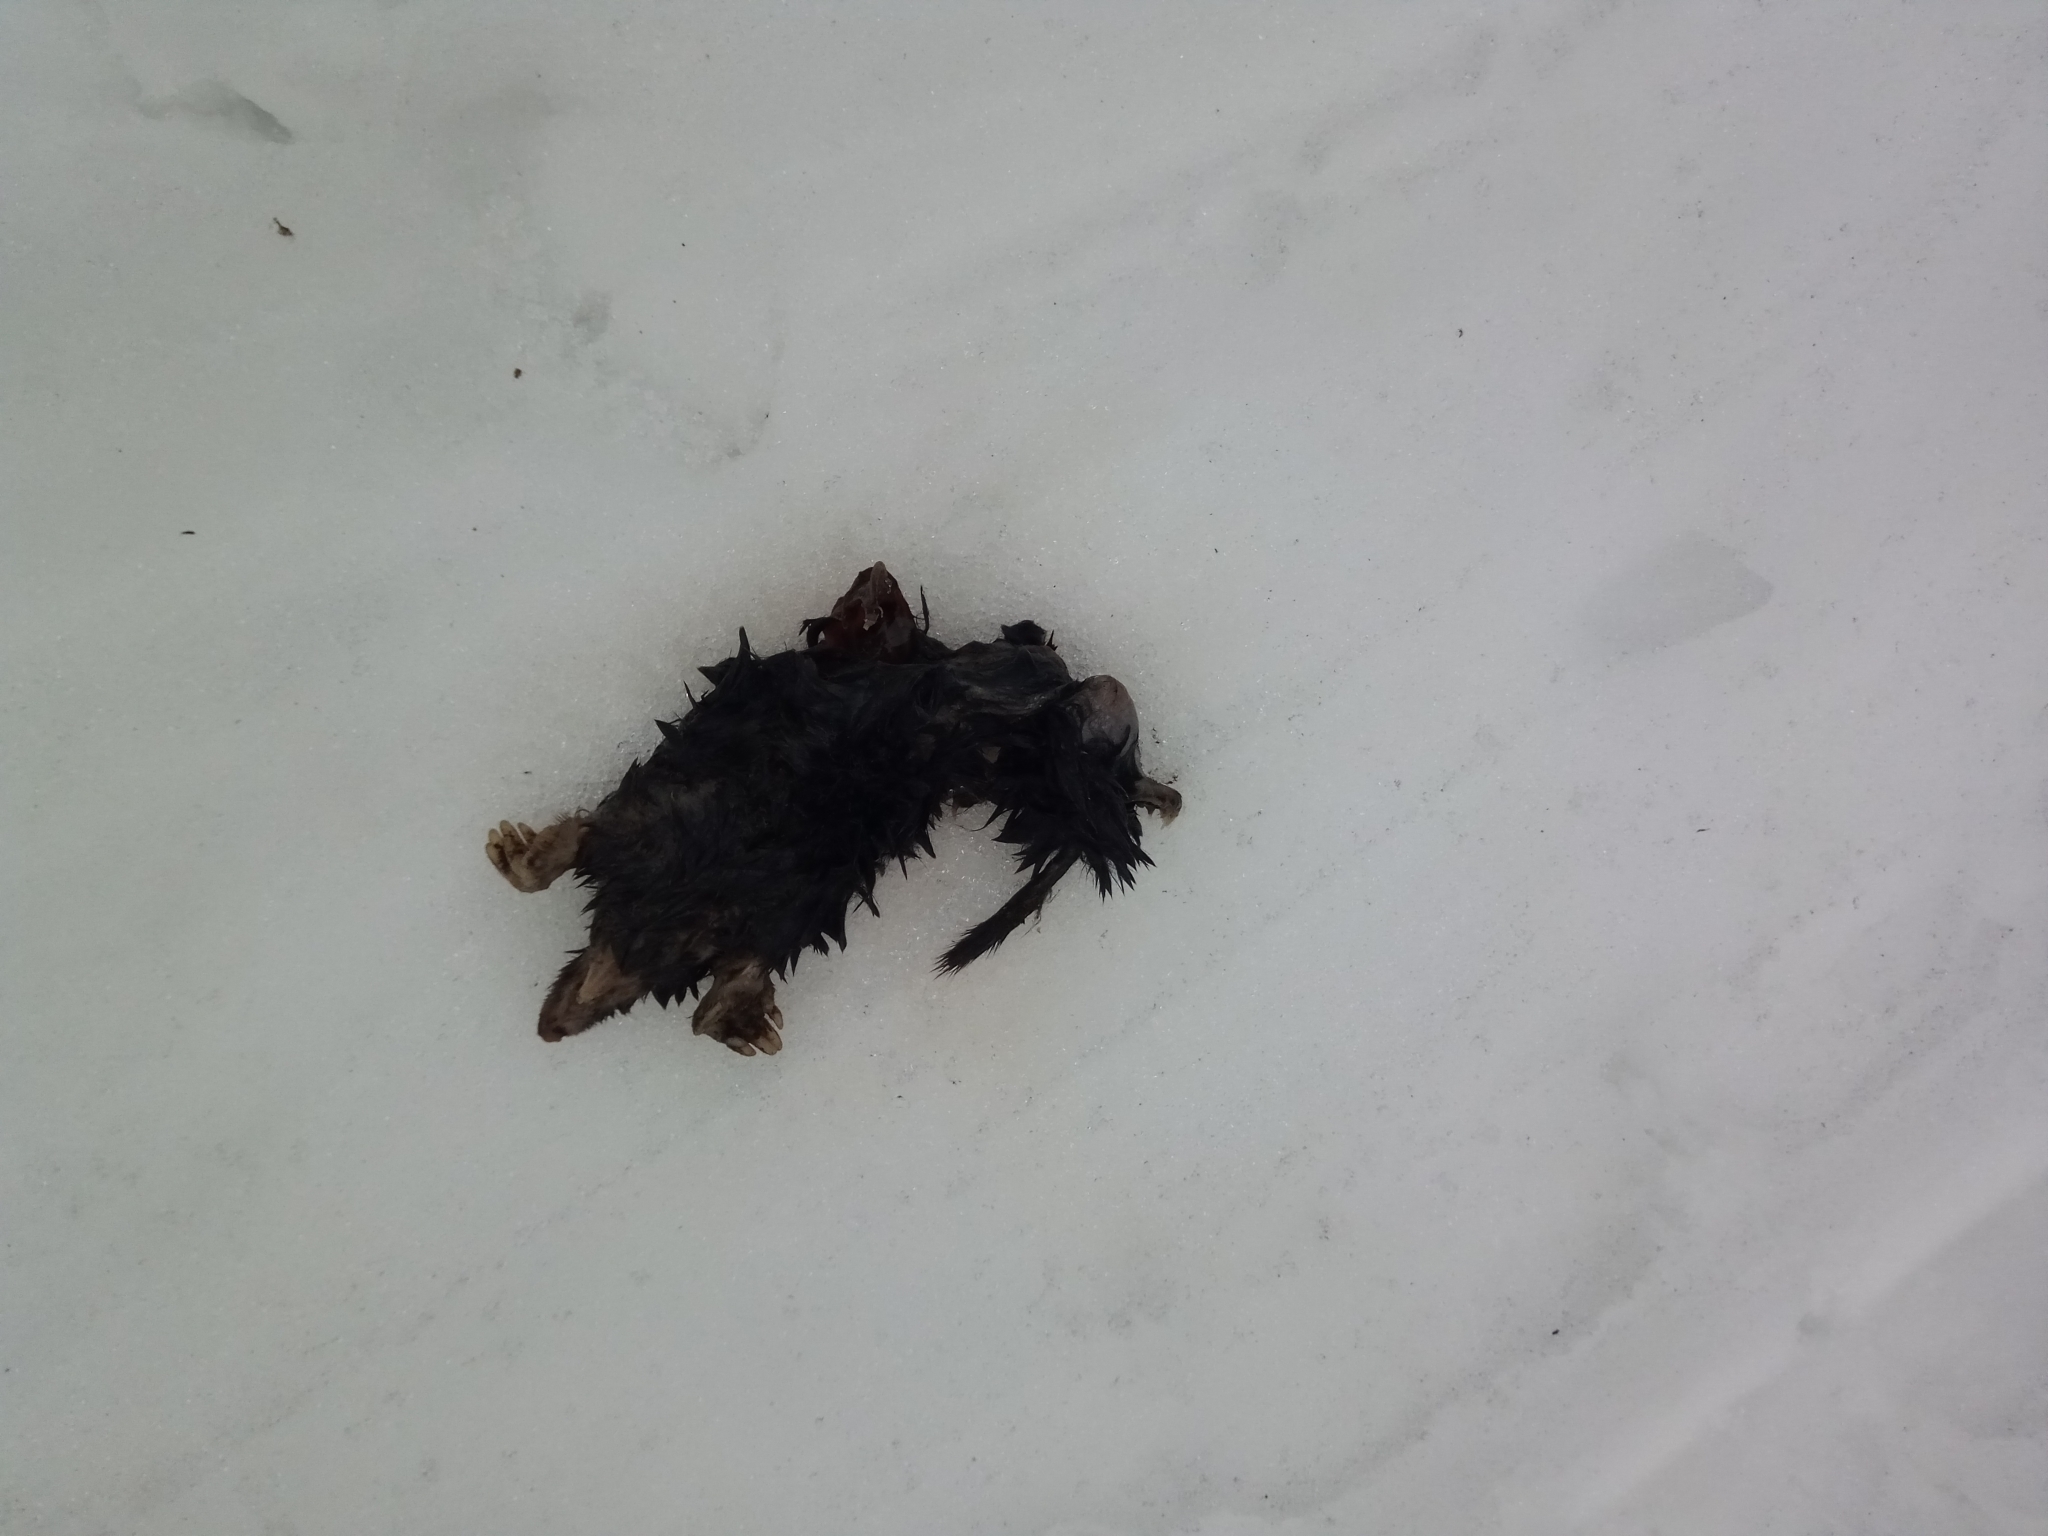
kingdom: Animalia
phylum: Chordata
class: Mammalia
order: Soricomorpha
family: Talpidae
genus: Talpa
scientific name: Talpa europaea
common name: European mole
